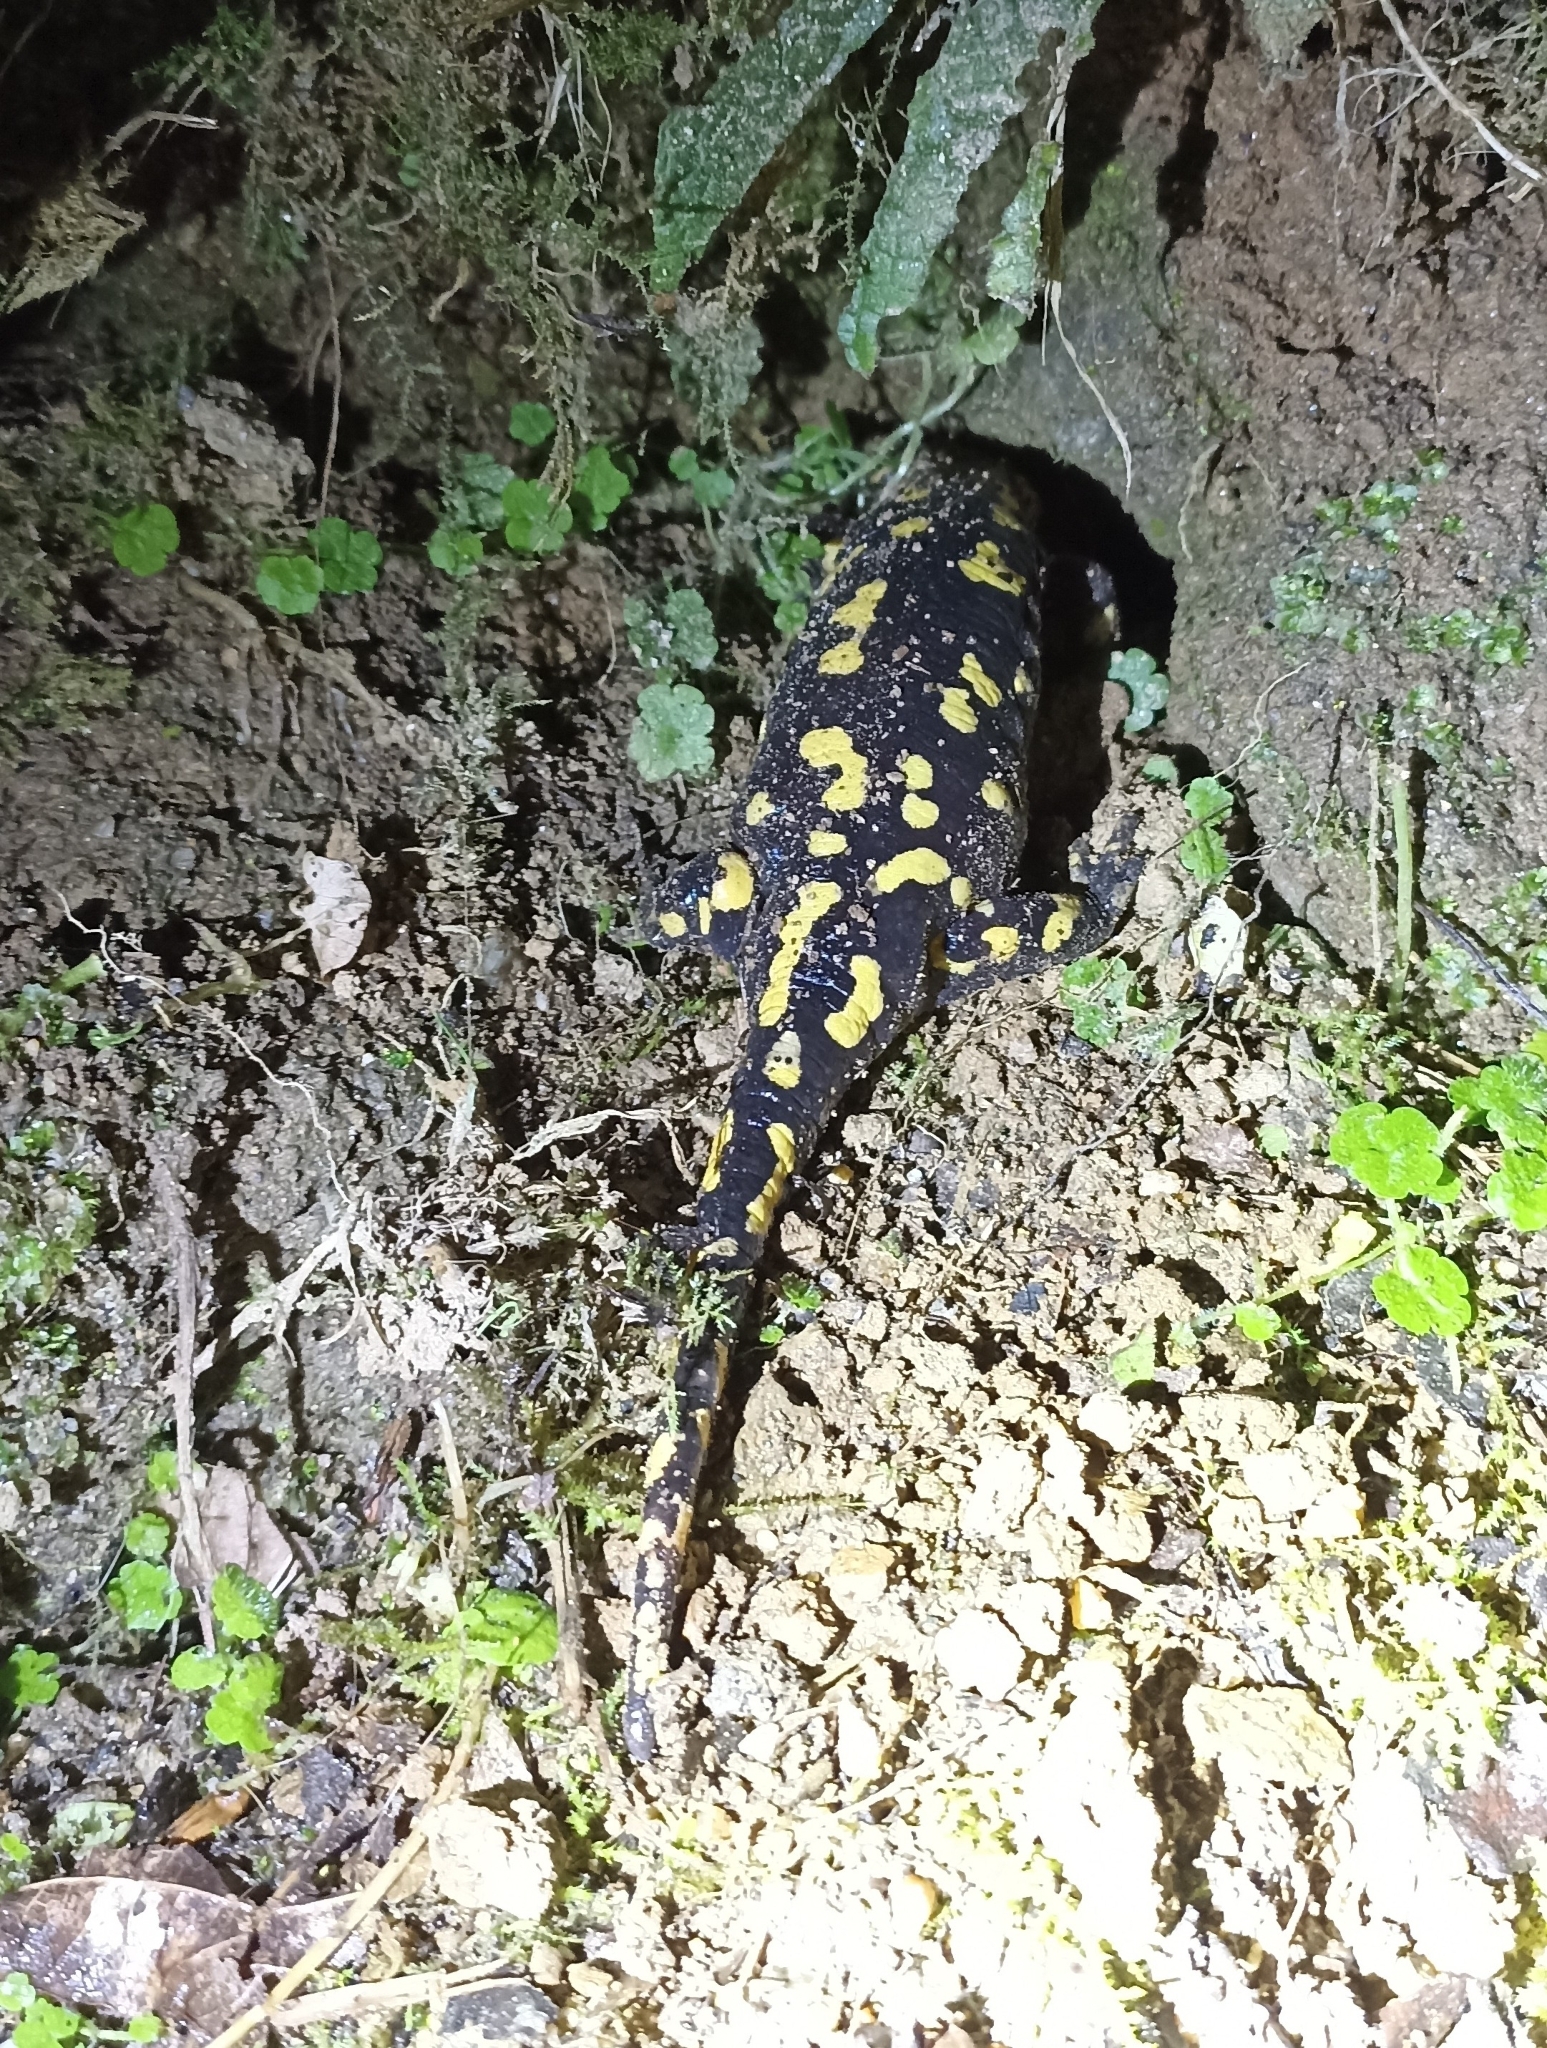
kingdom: Animalia
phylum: Chordata
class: Amphibia
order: Caudata
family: Salamandridae
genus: Salamandra
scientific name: Salamandra salamandra
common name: Fire salamander
